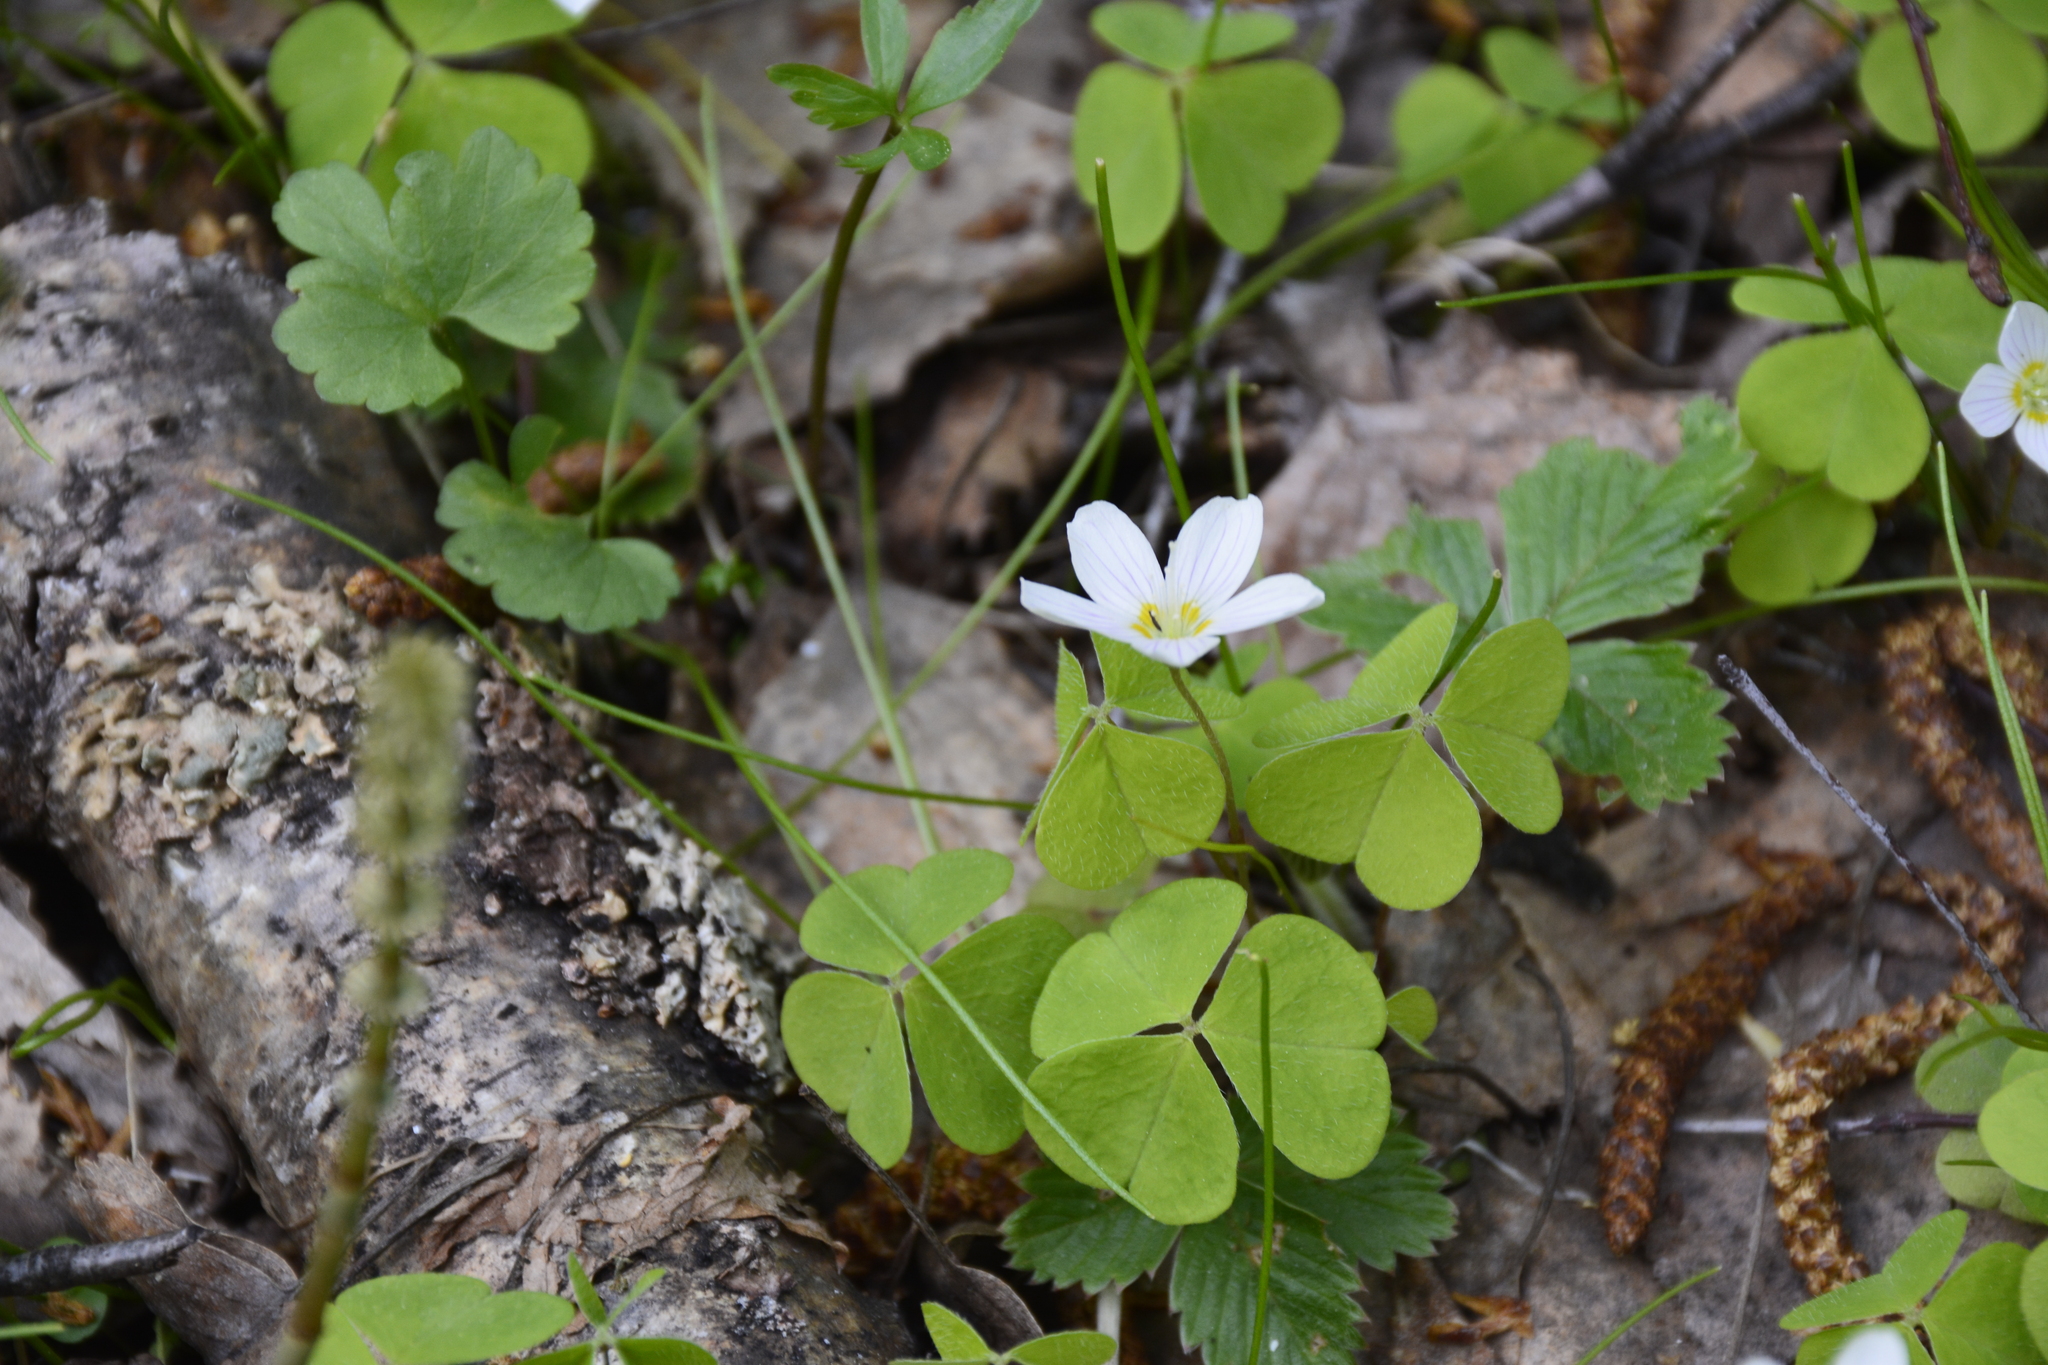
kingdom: Plantae
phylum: Tracheophyta
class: Magnoliopsida
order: Oxalidales
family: Oxalidaceae
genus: Oxalis
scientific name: Oxalis acetosella
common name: Wood-sorrel
